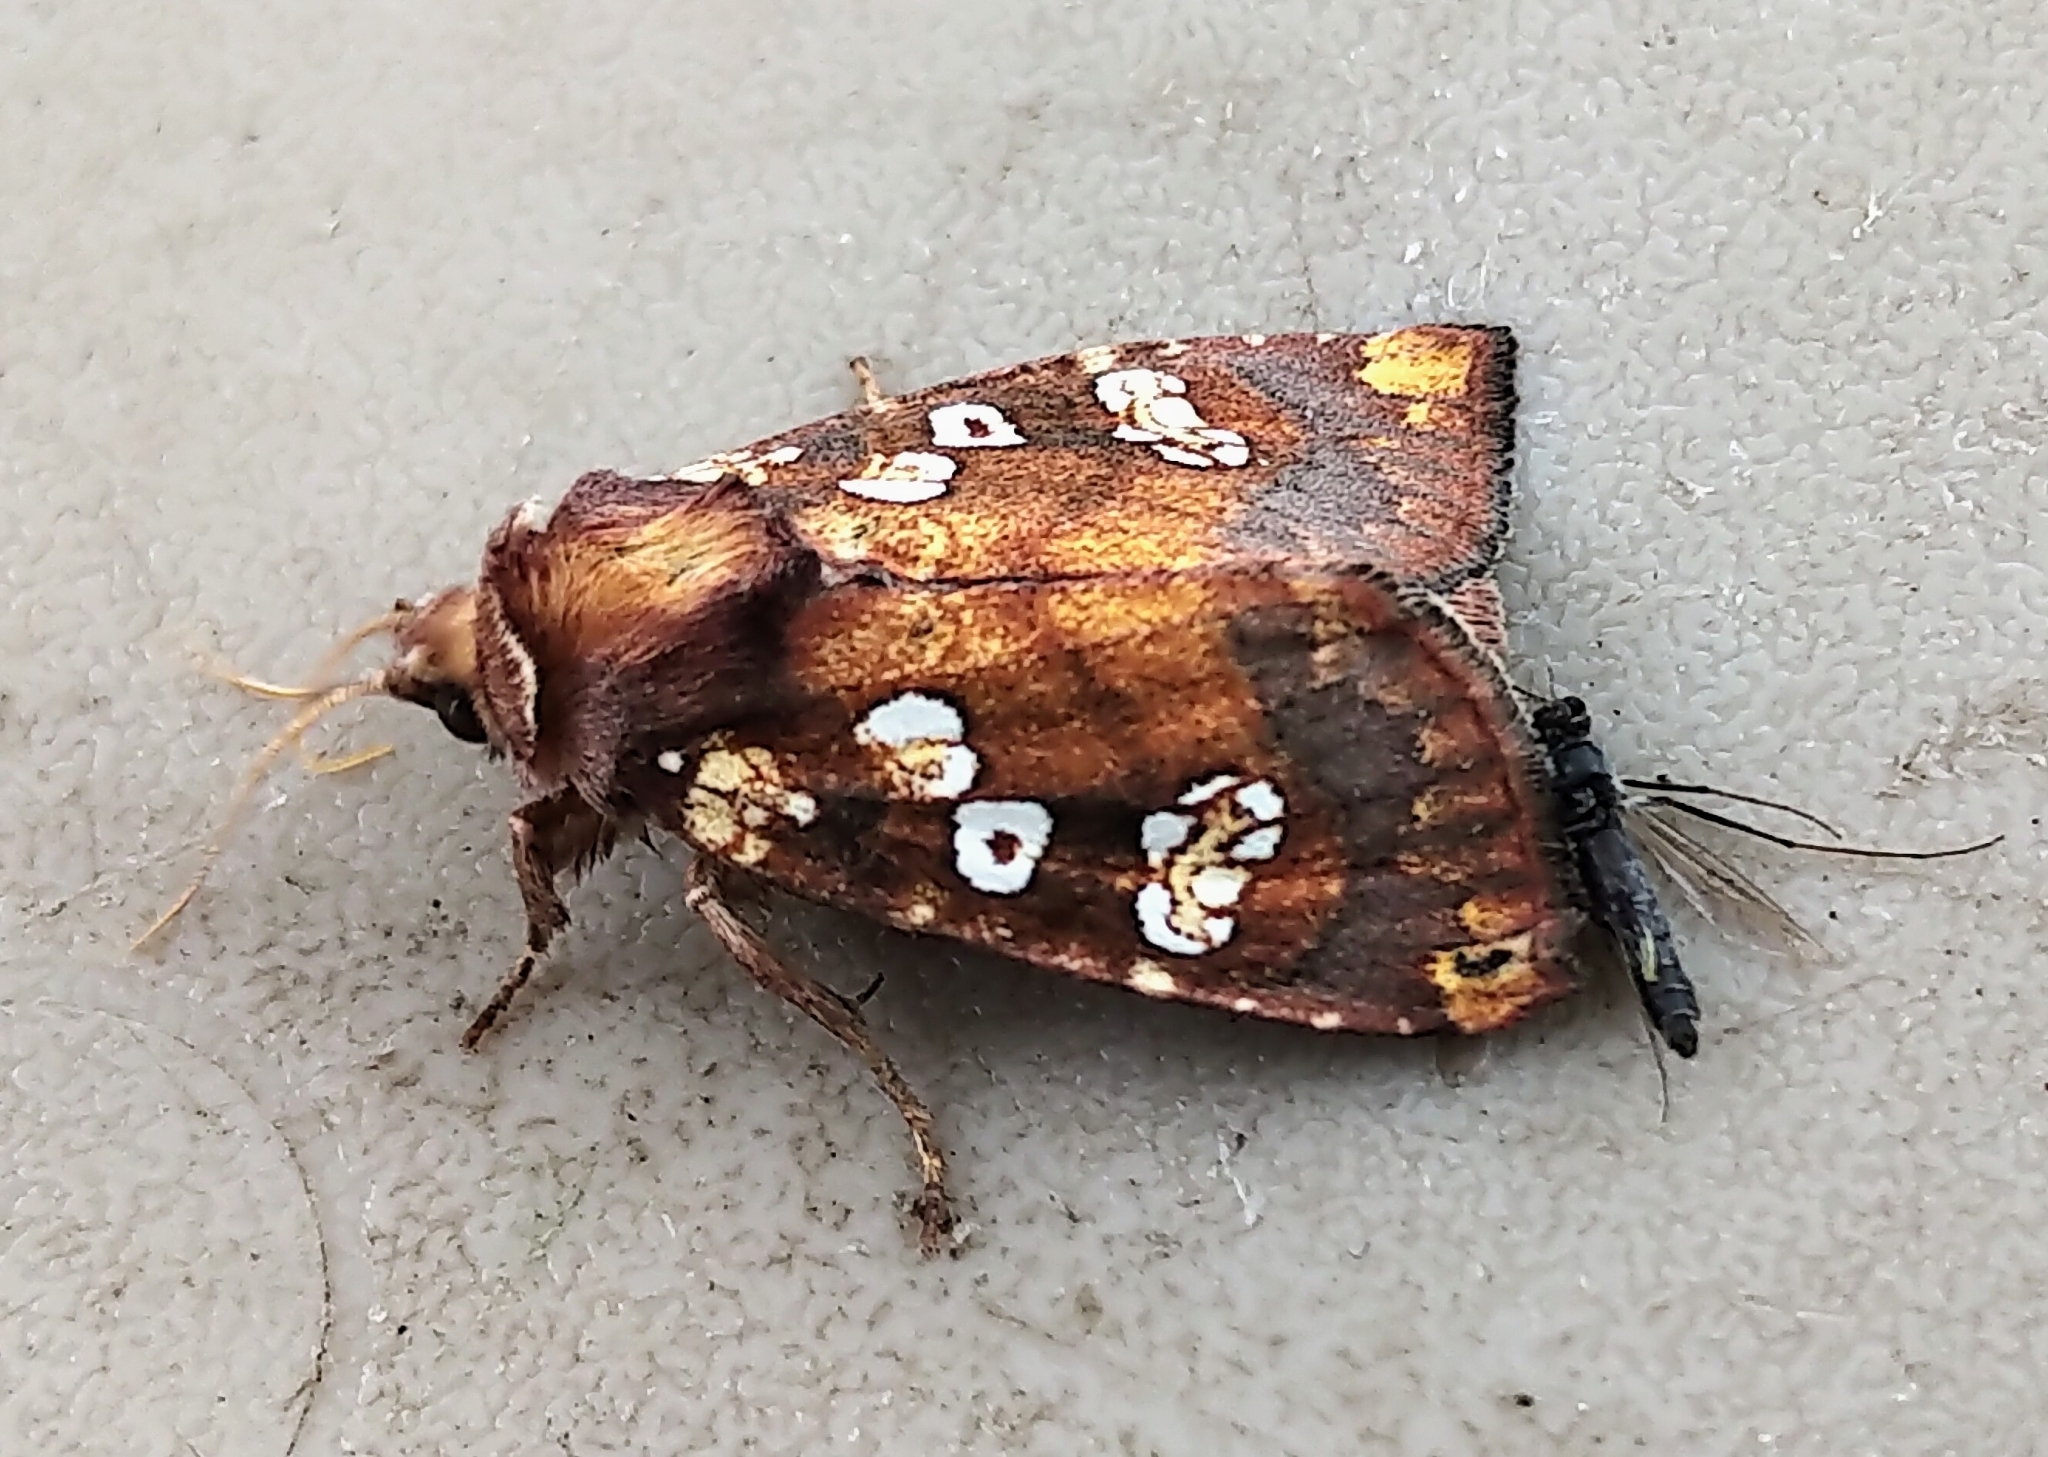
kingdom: Animalia
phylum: Arthropoda
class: Insecta
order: Lepidoptera
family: Noctuidae
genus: Papaipema
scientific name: Papaipema insulidens
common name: Ragwort stem borer moth
